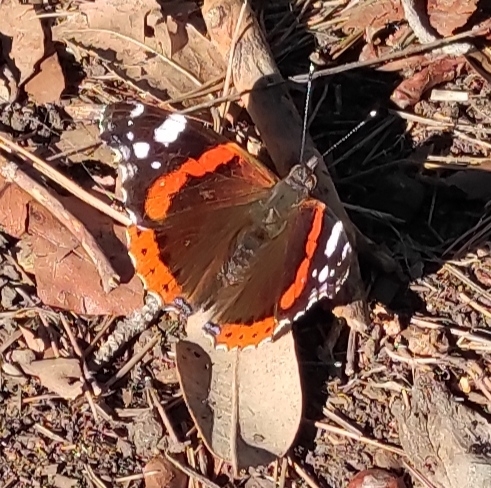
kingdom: Animalia
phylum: Arthropoda
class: Insecta
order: Lepidoptera
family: Nymphalidae
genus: Vanessa
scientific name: Vanessa atalanta
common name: Red admiral
